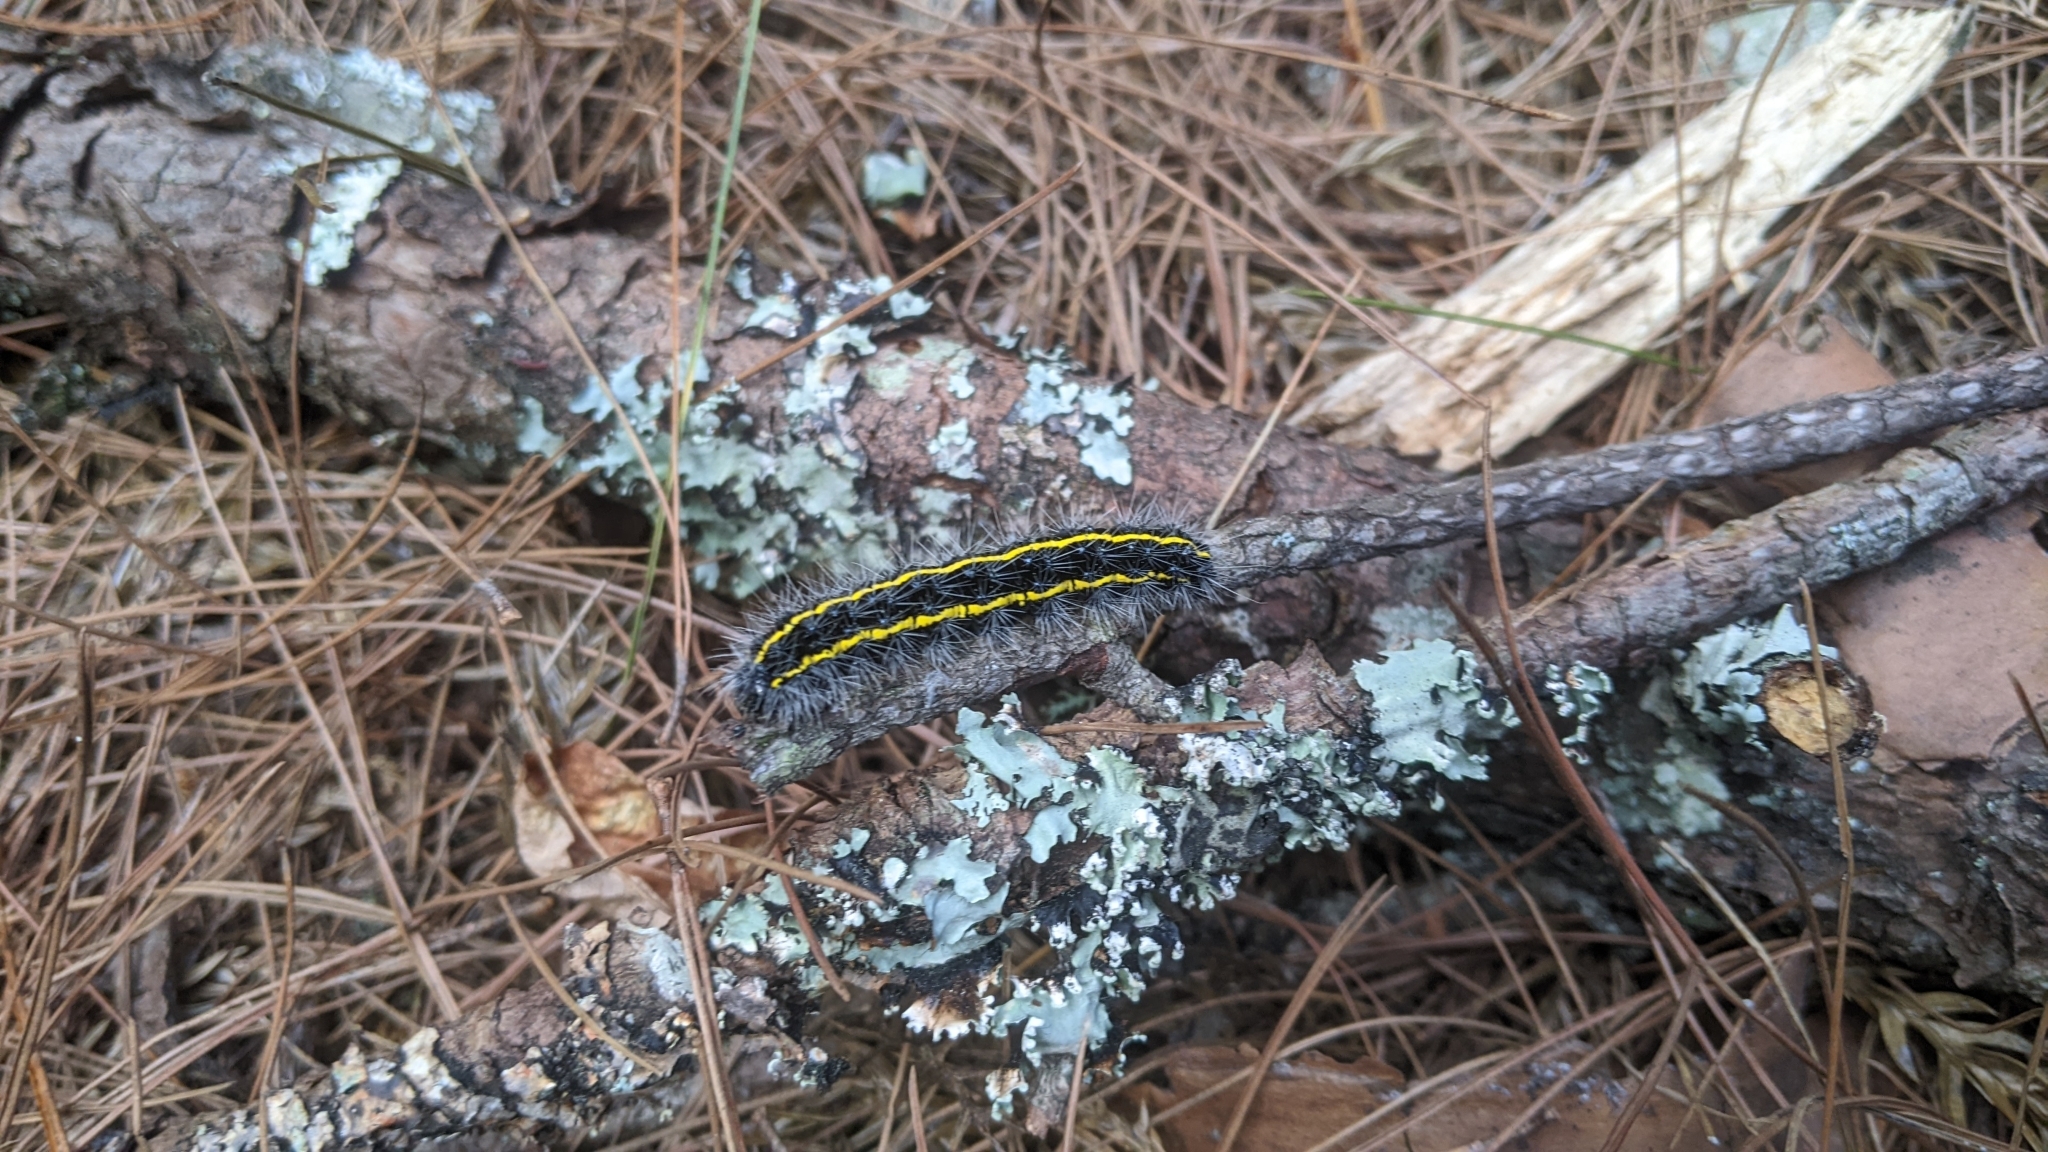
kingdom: Animalia
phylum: Arthropoda
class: Insecta
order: Lepidoptera
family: Erebidae
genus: Taicallimorpha
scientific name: Taicallimorpha albipuncta
